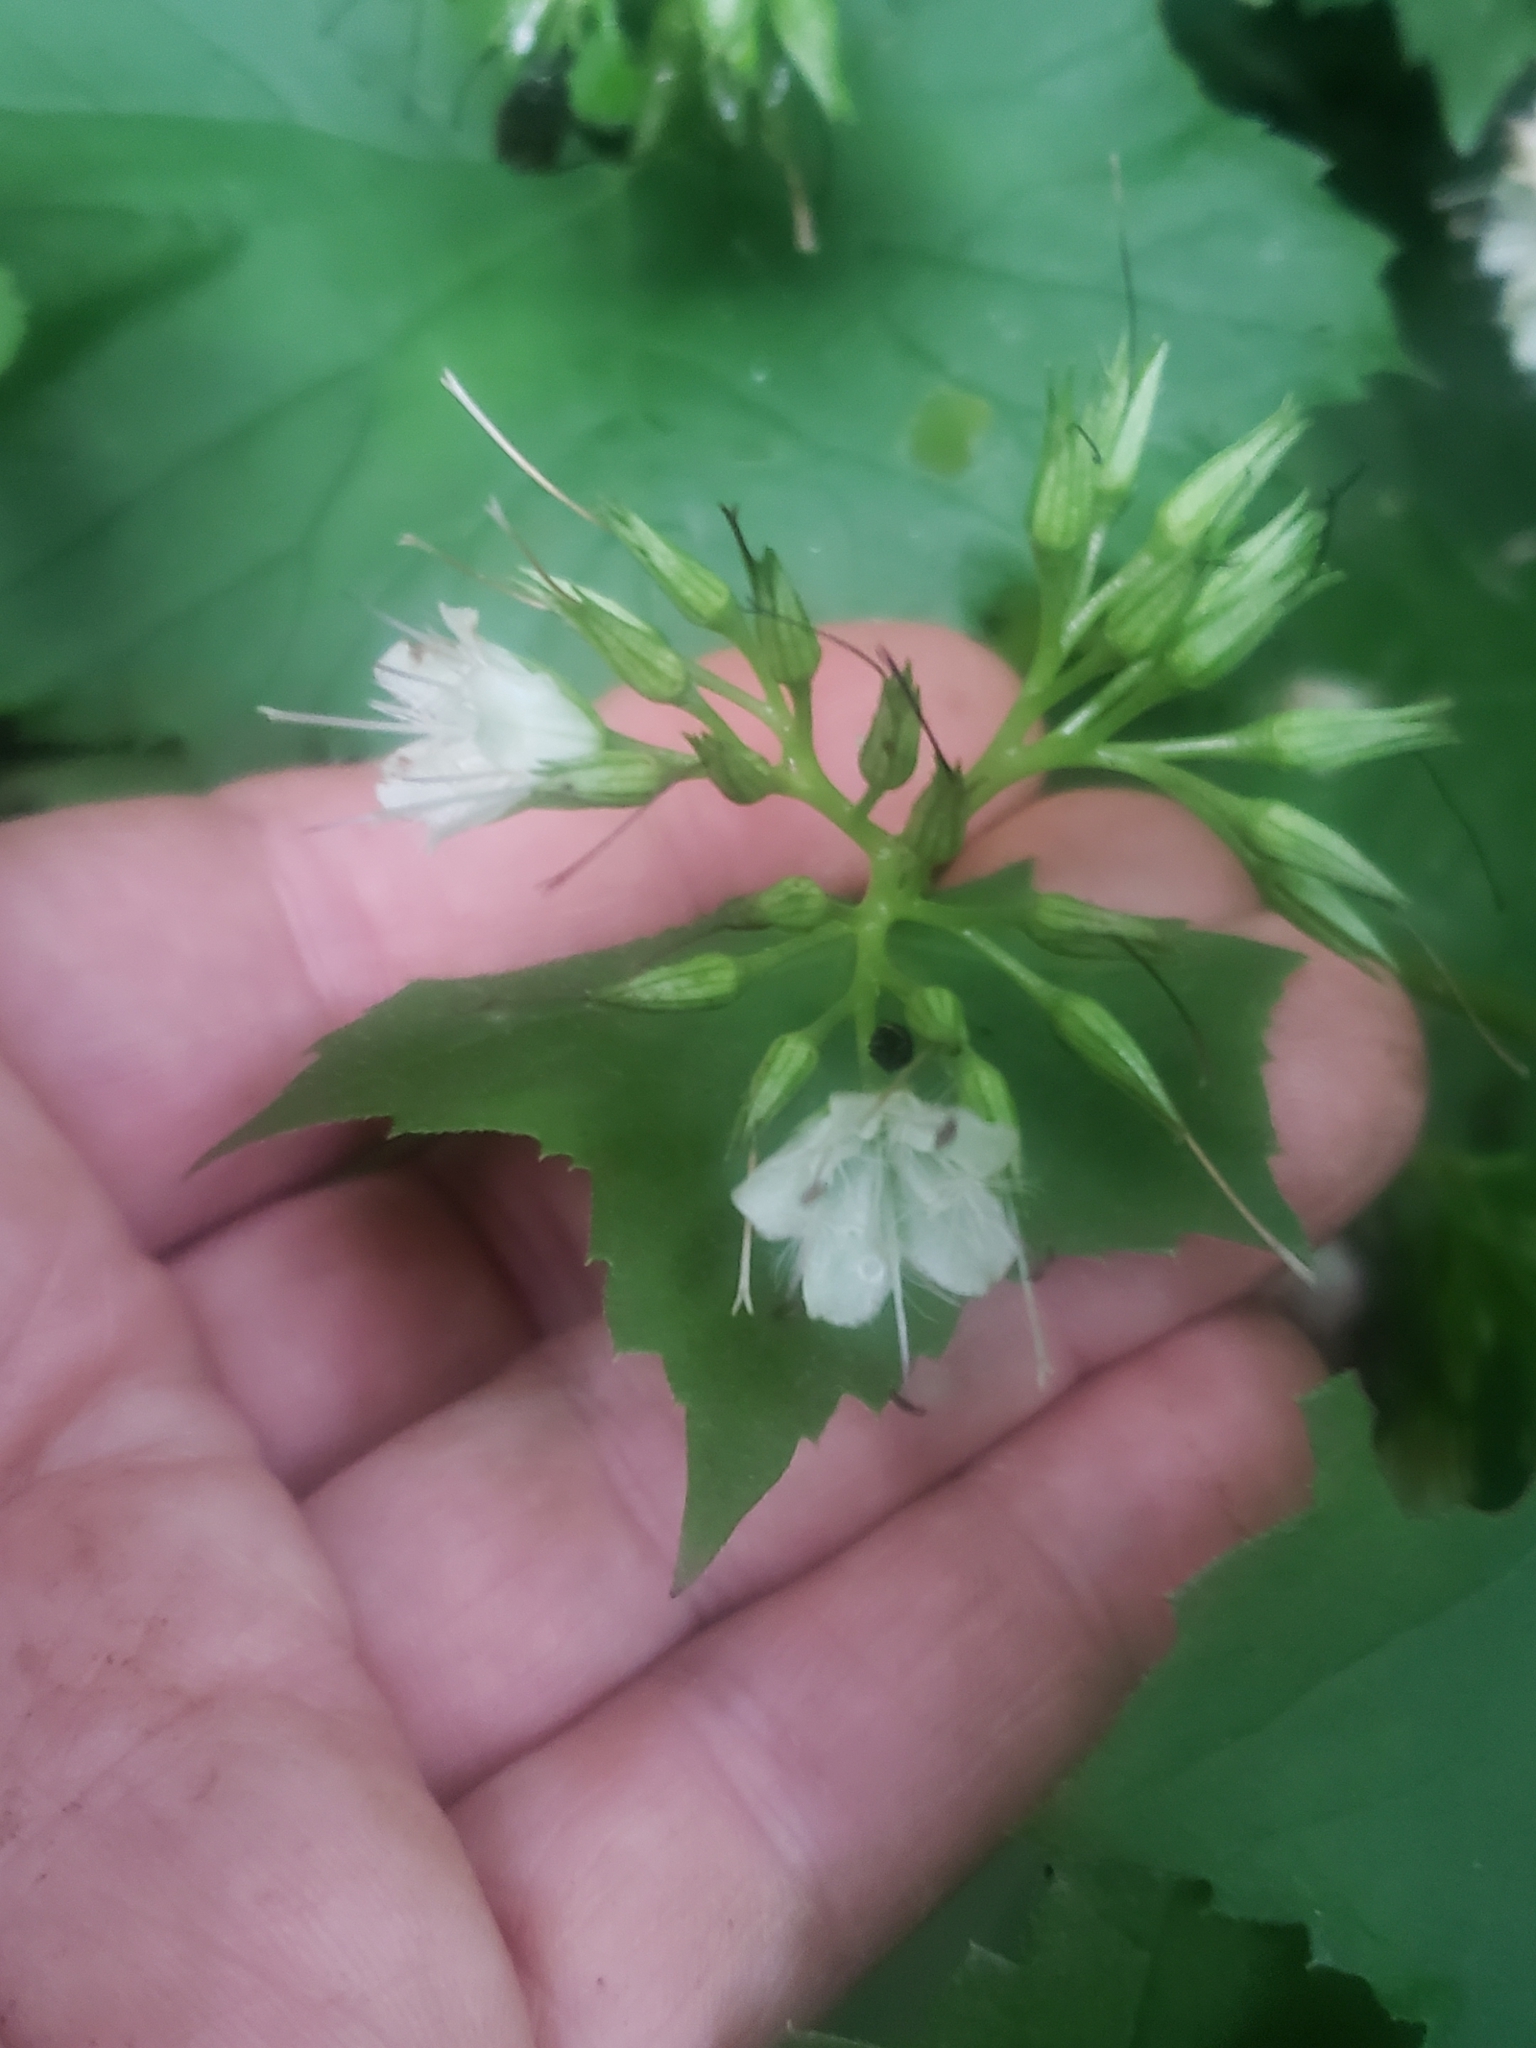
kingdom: Plantae
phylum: Tracheophyta
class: Magnoliopsida
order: Boraginales
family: Hydrophyllaceae
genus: Hydrophyllum
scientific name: Hydrophyllum canadense
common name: Canada waterleaf
